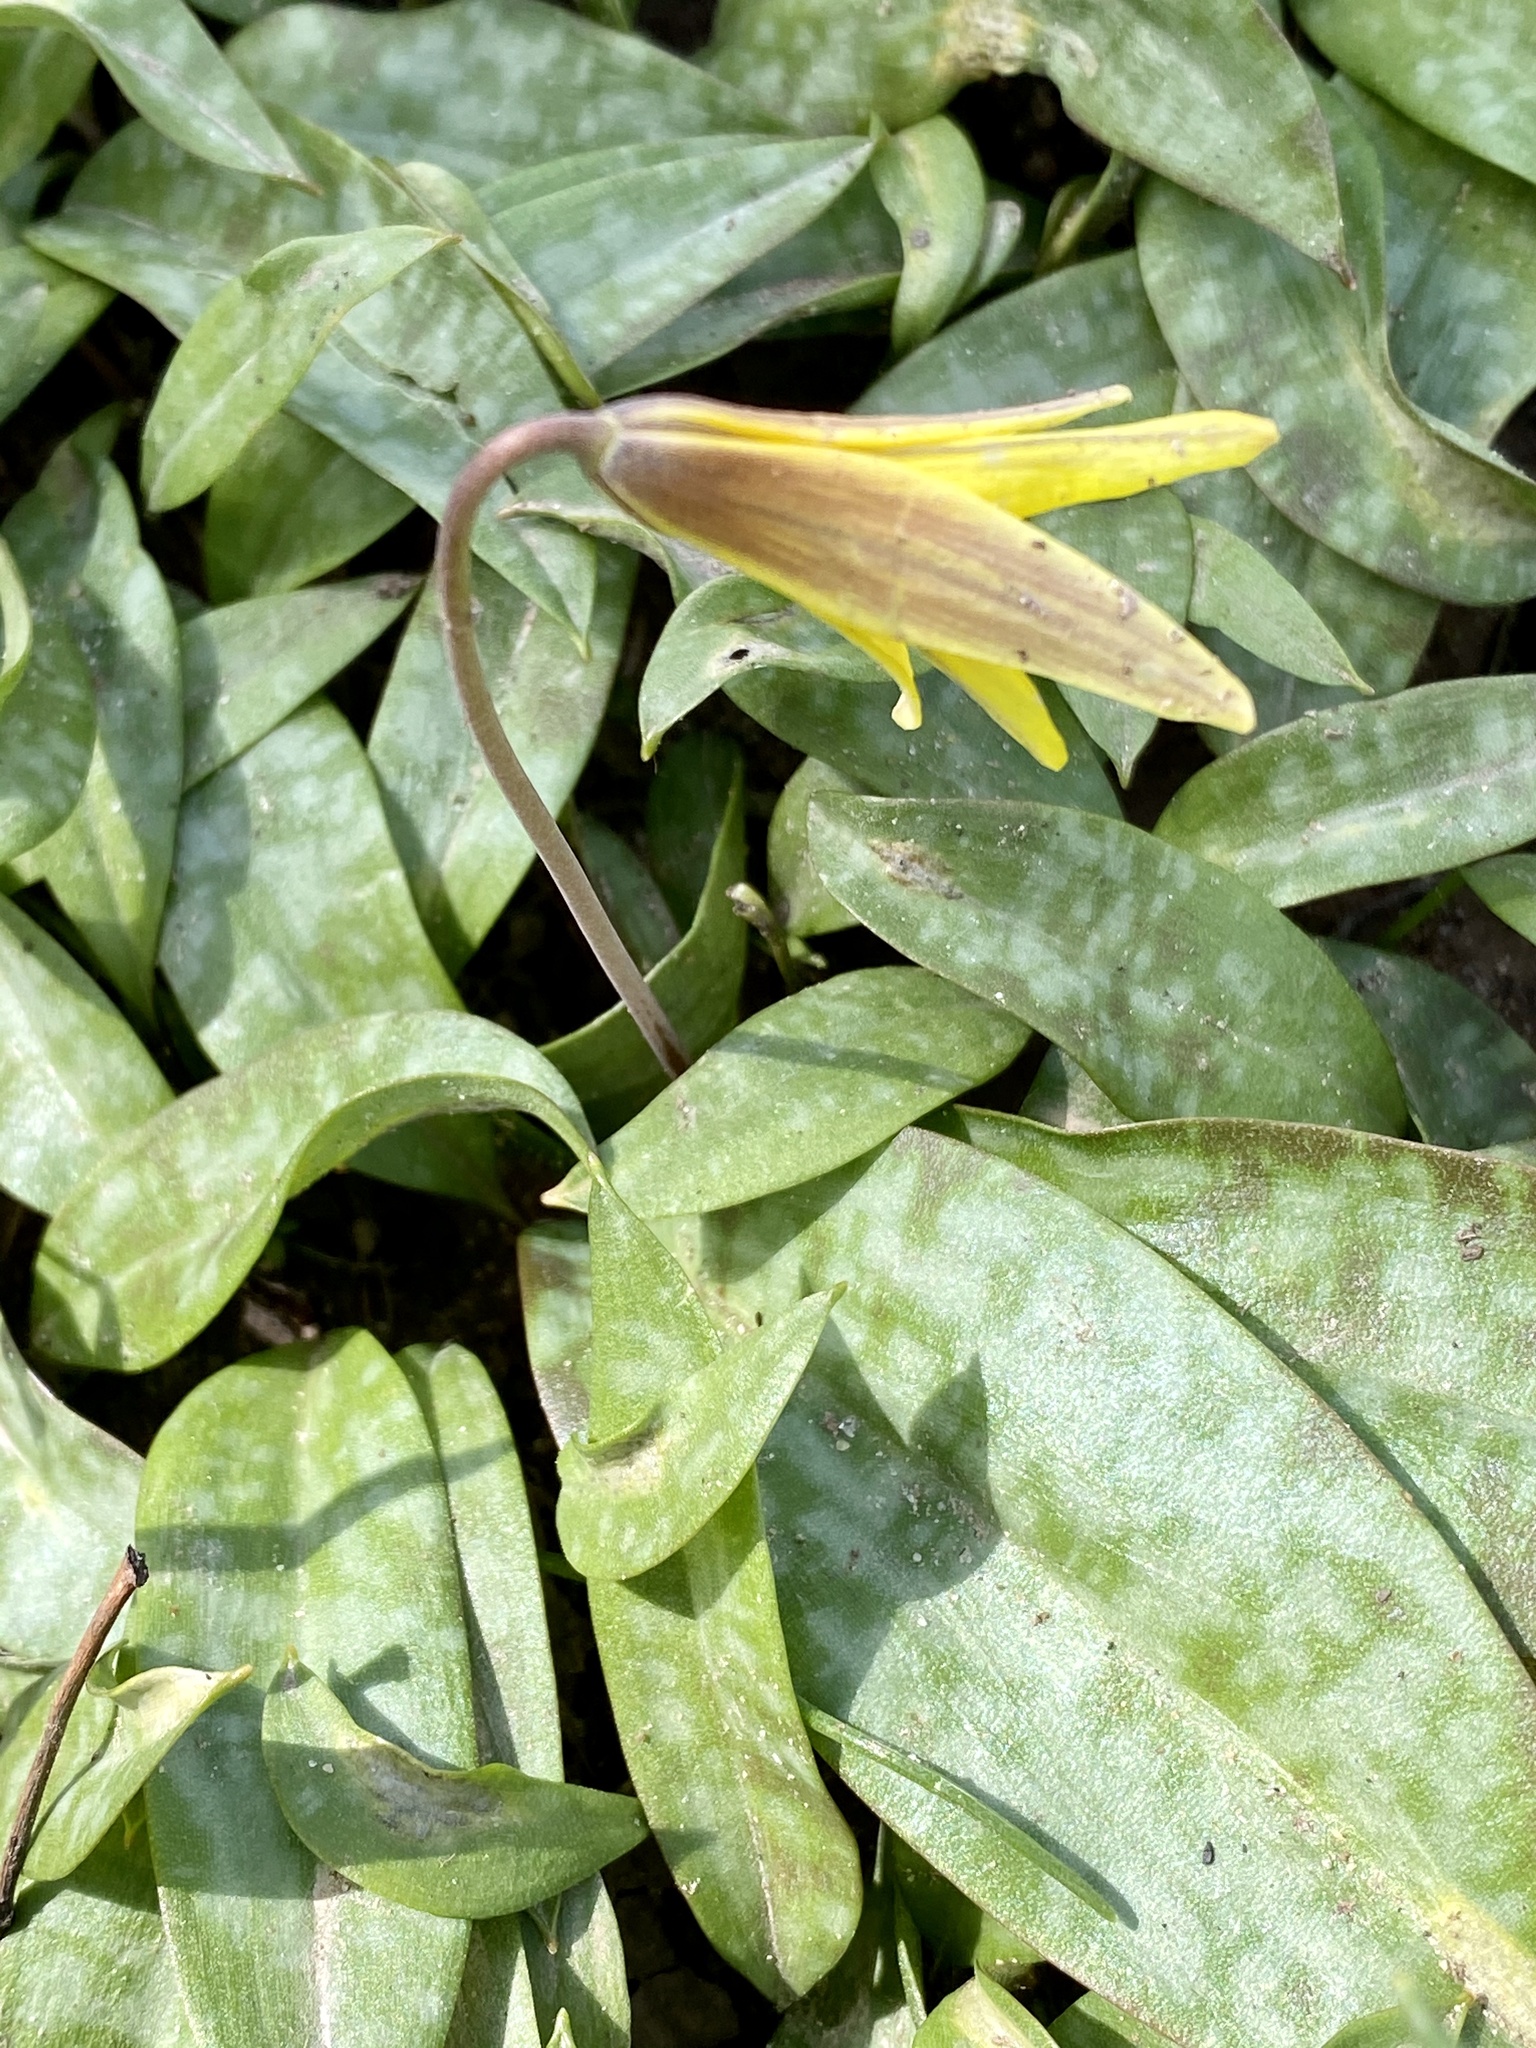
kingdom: Plantae
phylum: Tracheophyta
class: Liliopsida
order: Liliales
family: Liliaceae
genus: Erythronium
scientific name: Erythronium americanum
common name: Yellow adder's-tongue
